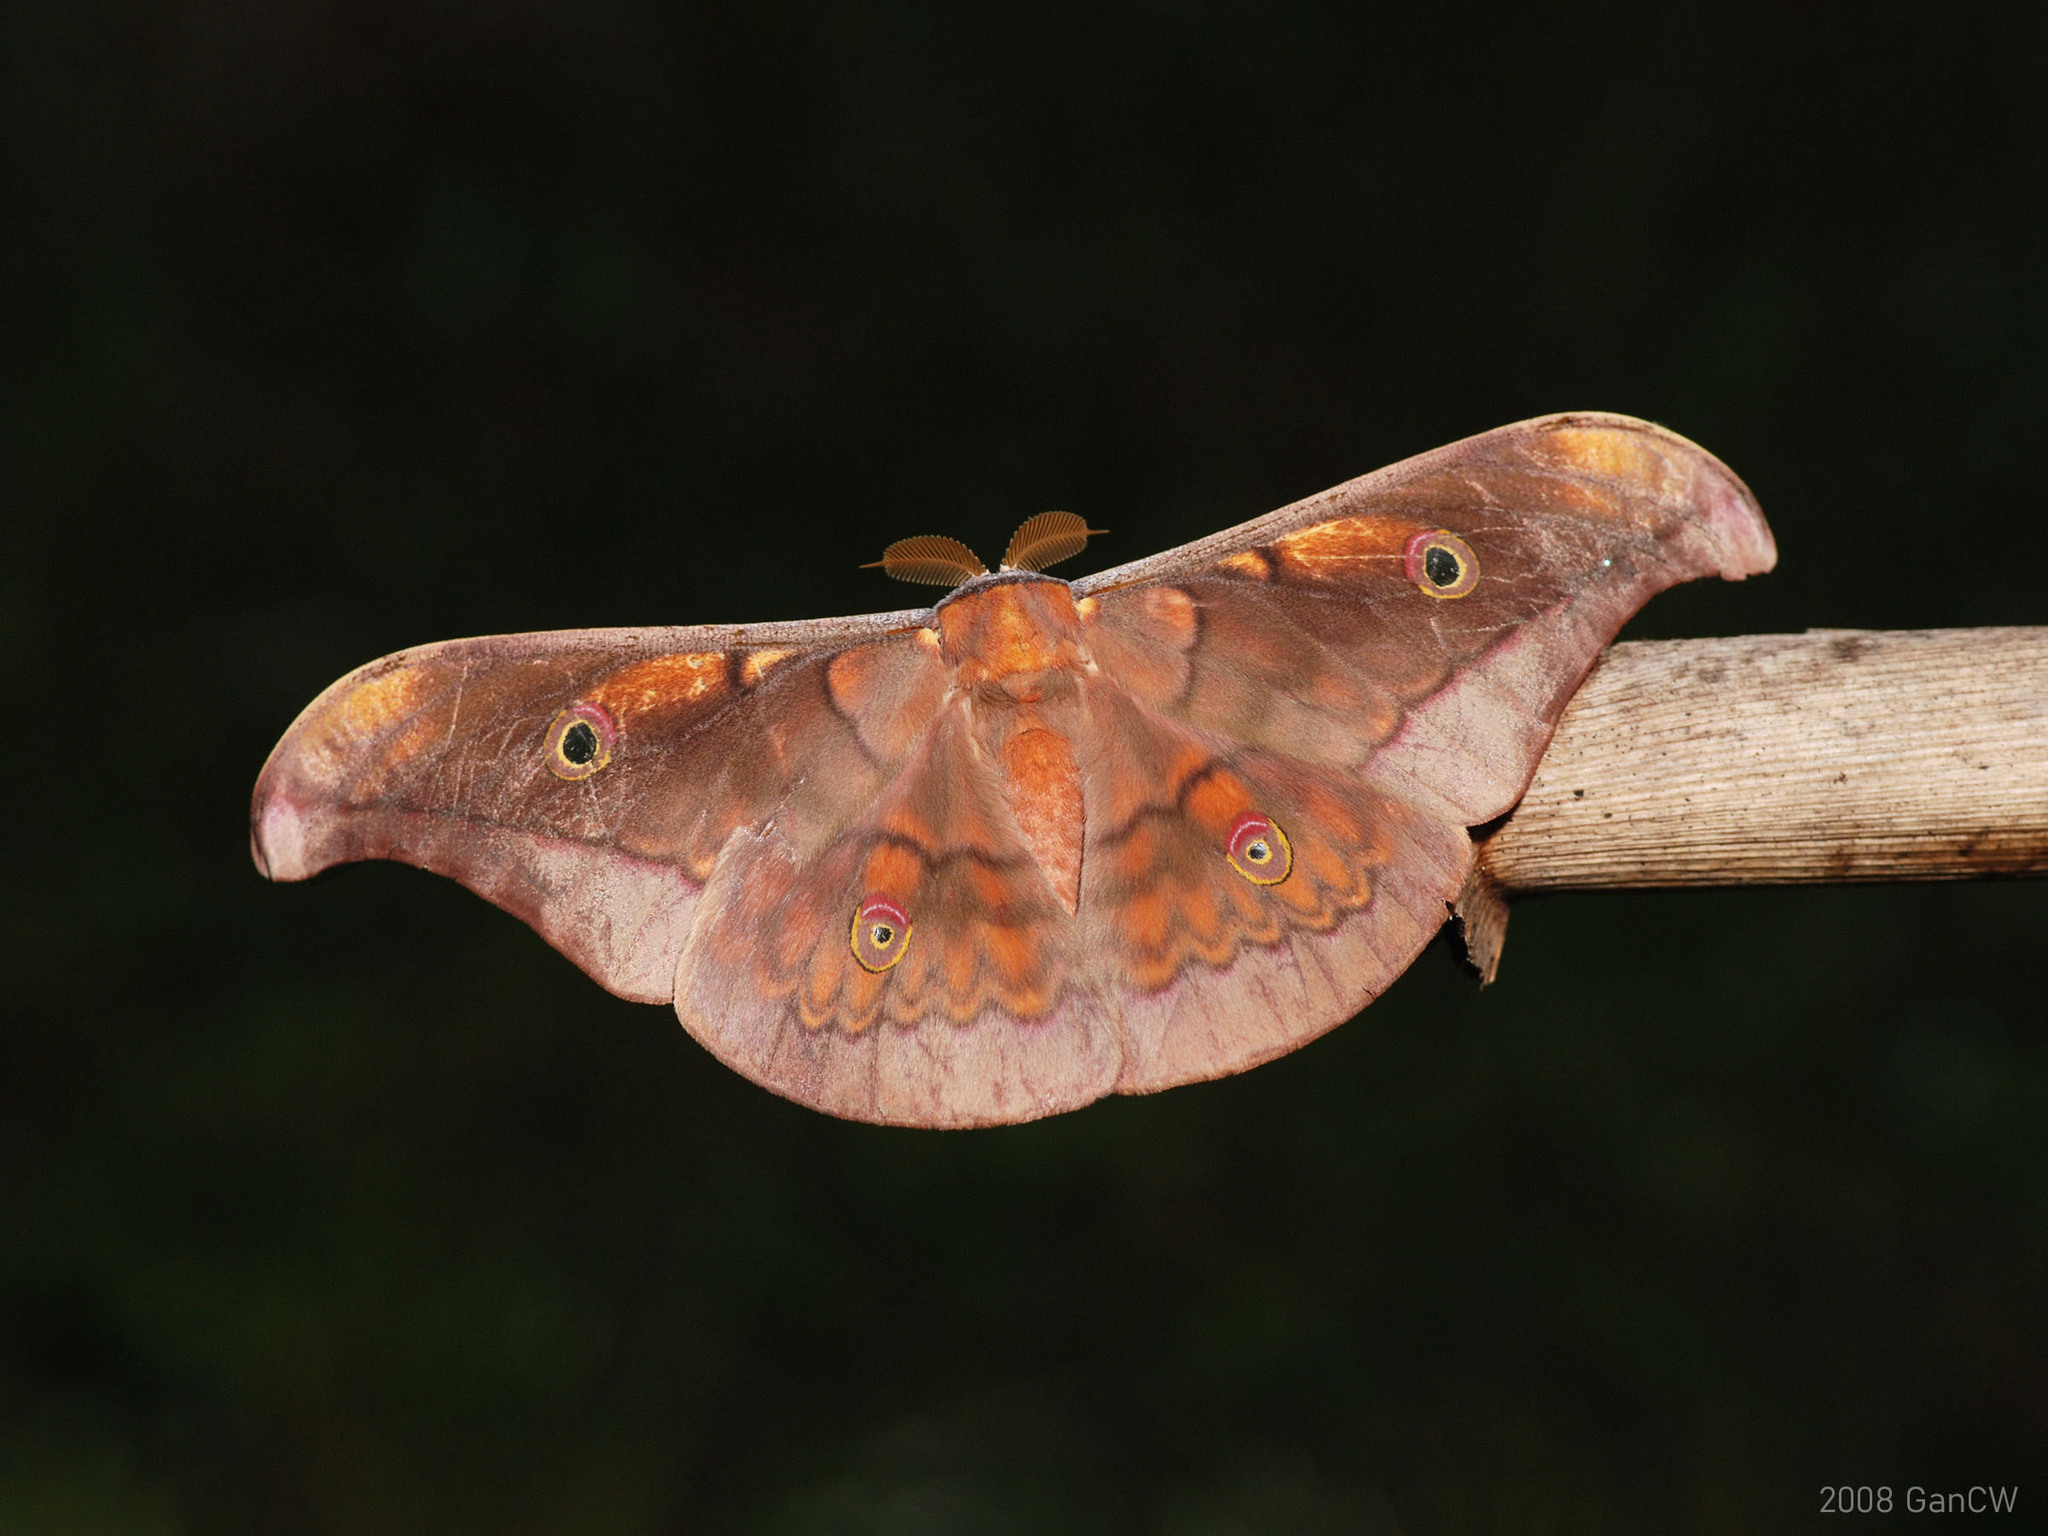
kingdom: Animalia
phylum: Arthropoda
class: Insecta
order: Lepidoptera
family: Saturniidae
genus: Antheraea
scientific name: Antheraea ulrichbroschi
